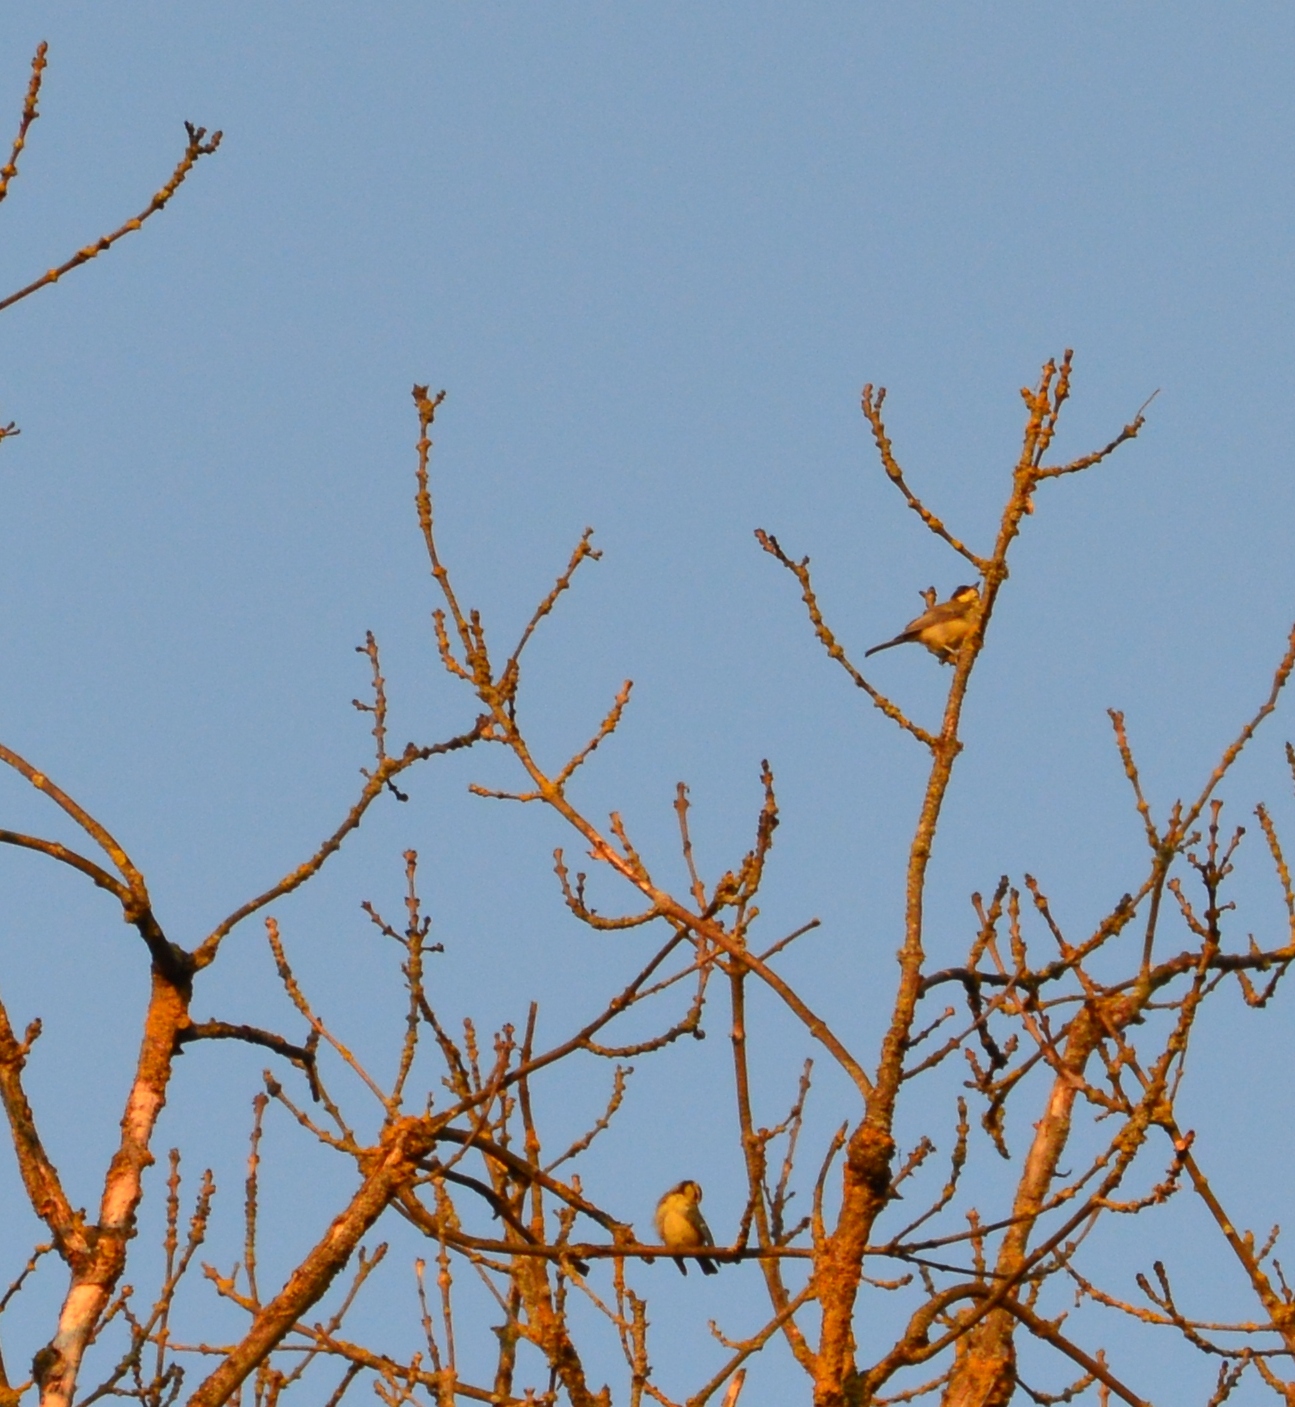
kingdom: Animalia
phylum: Chordata
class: Aves
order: Passeriformes
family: Paridae
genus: Parus
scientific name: Parus major
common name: Great tit
